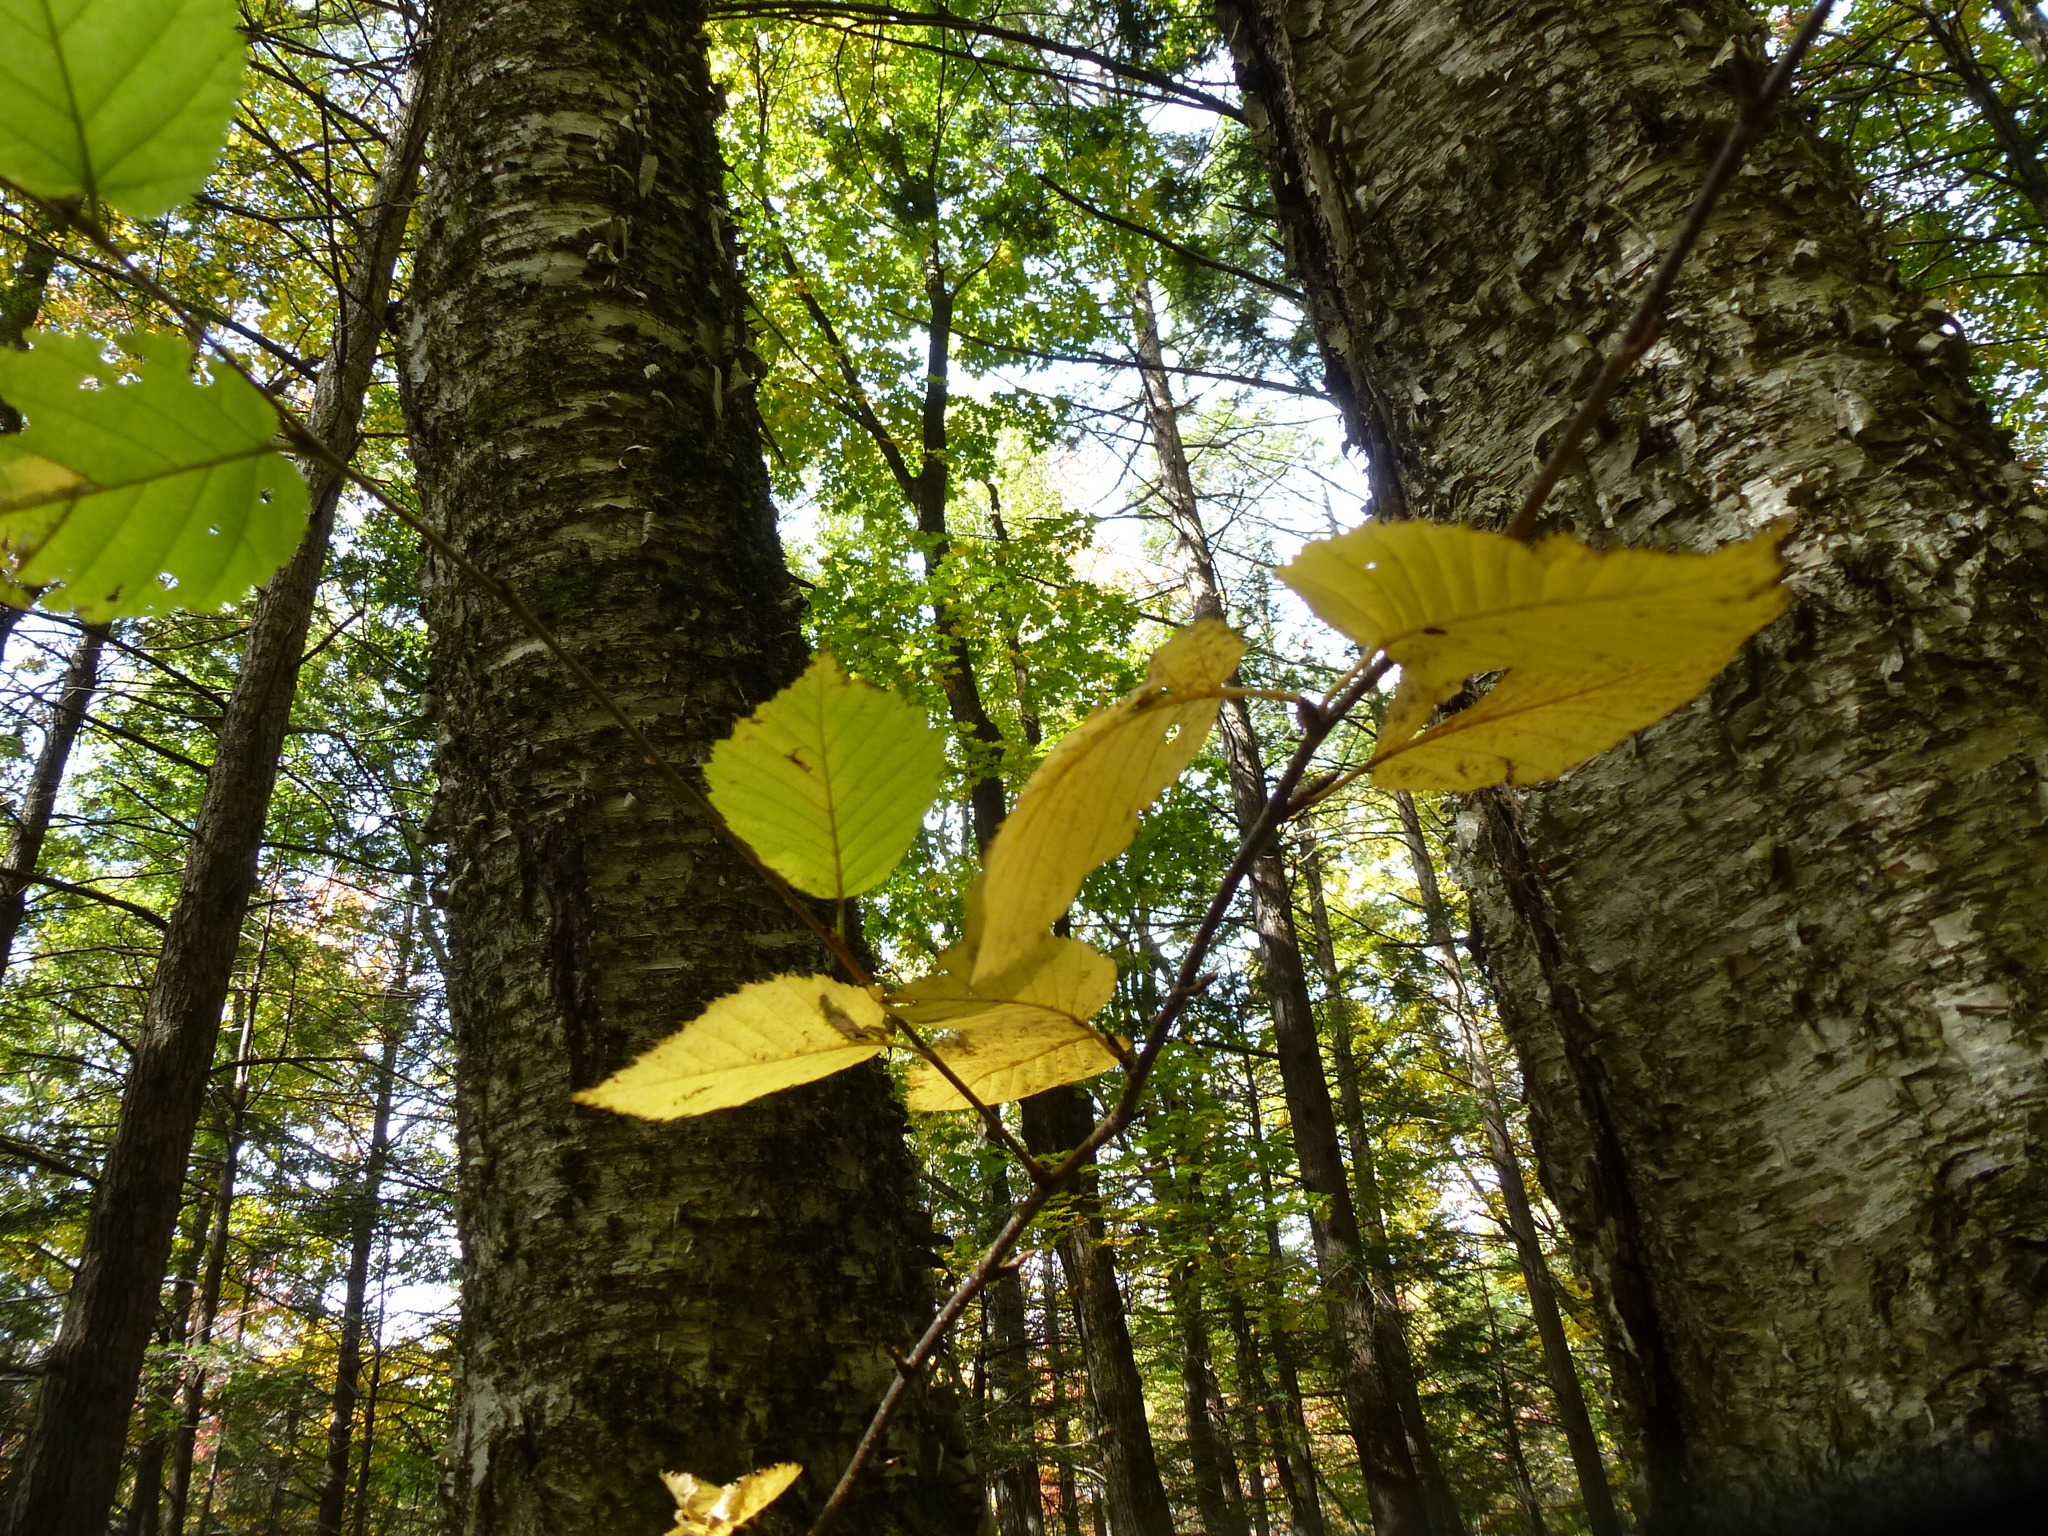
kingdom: Plantae
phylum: Tracheophyta
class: Magnoliopsida
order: Fagales
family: Betulaceae
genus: Betula
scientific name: Betula alleghaniensis
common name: Yellow birch
